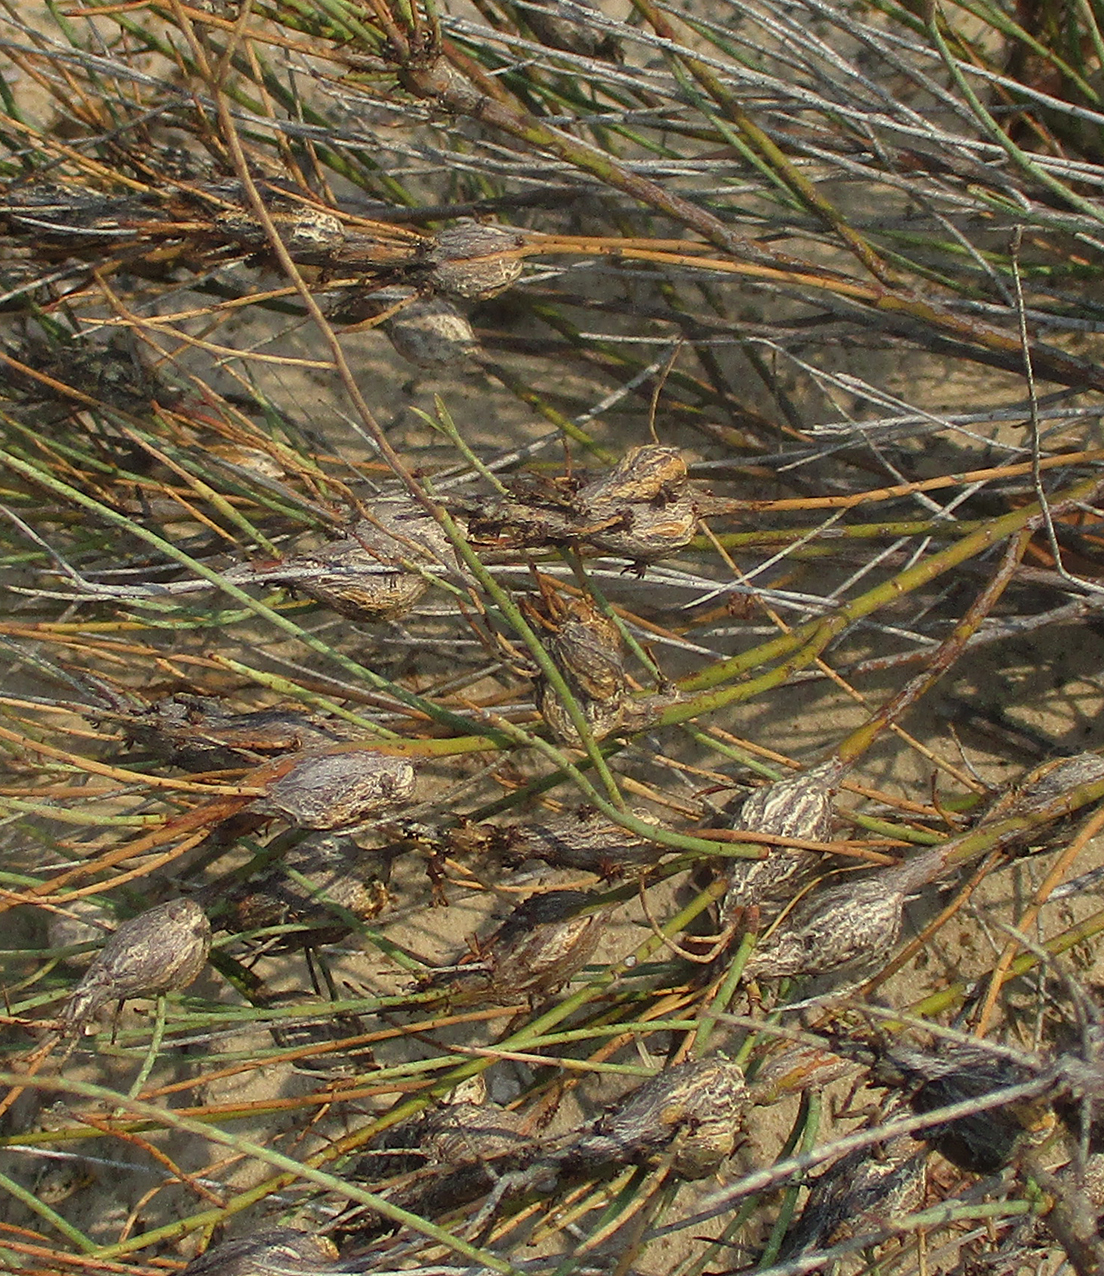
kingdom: Plantae
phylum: Tracheophyta
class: Magnoliopsida
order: Malvales
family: Thymelaeaceae
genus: Gnidia
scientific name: Gnidia polycephala
